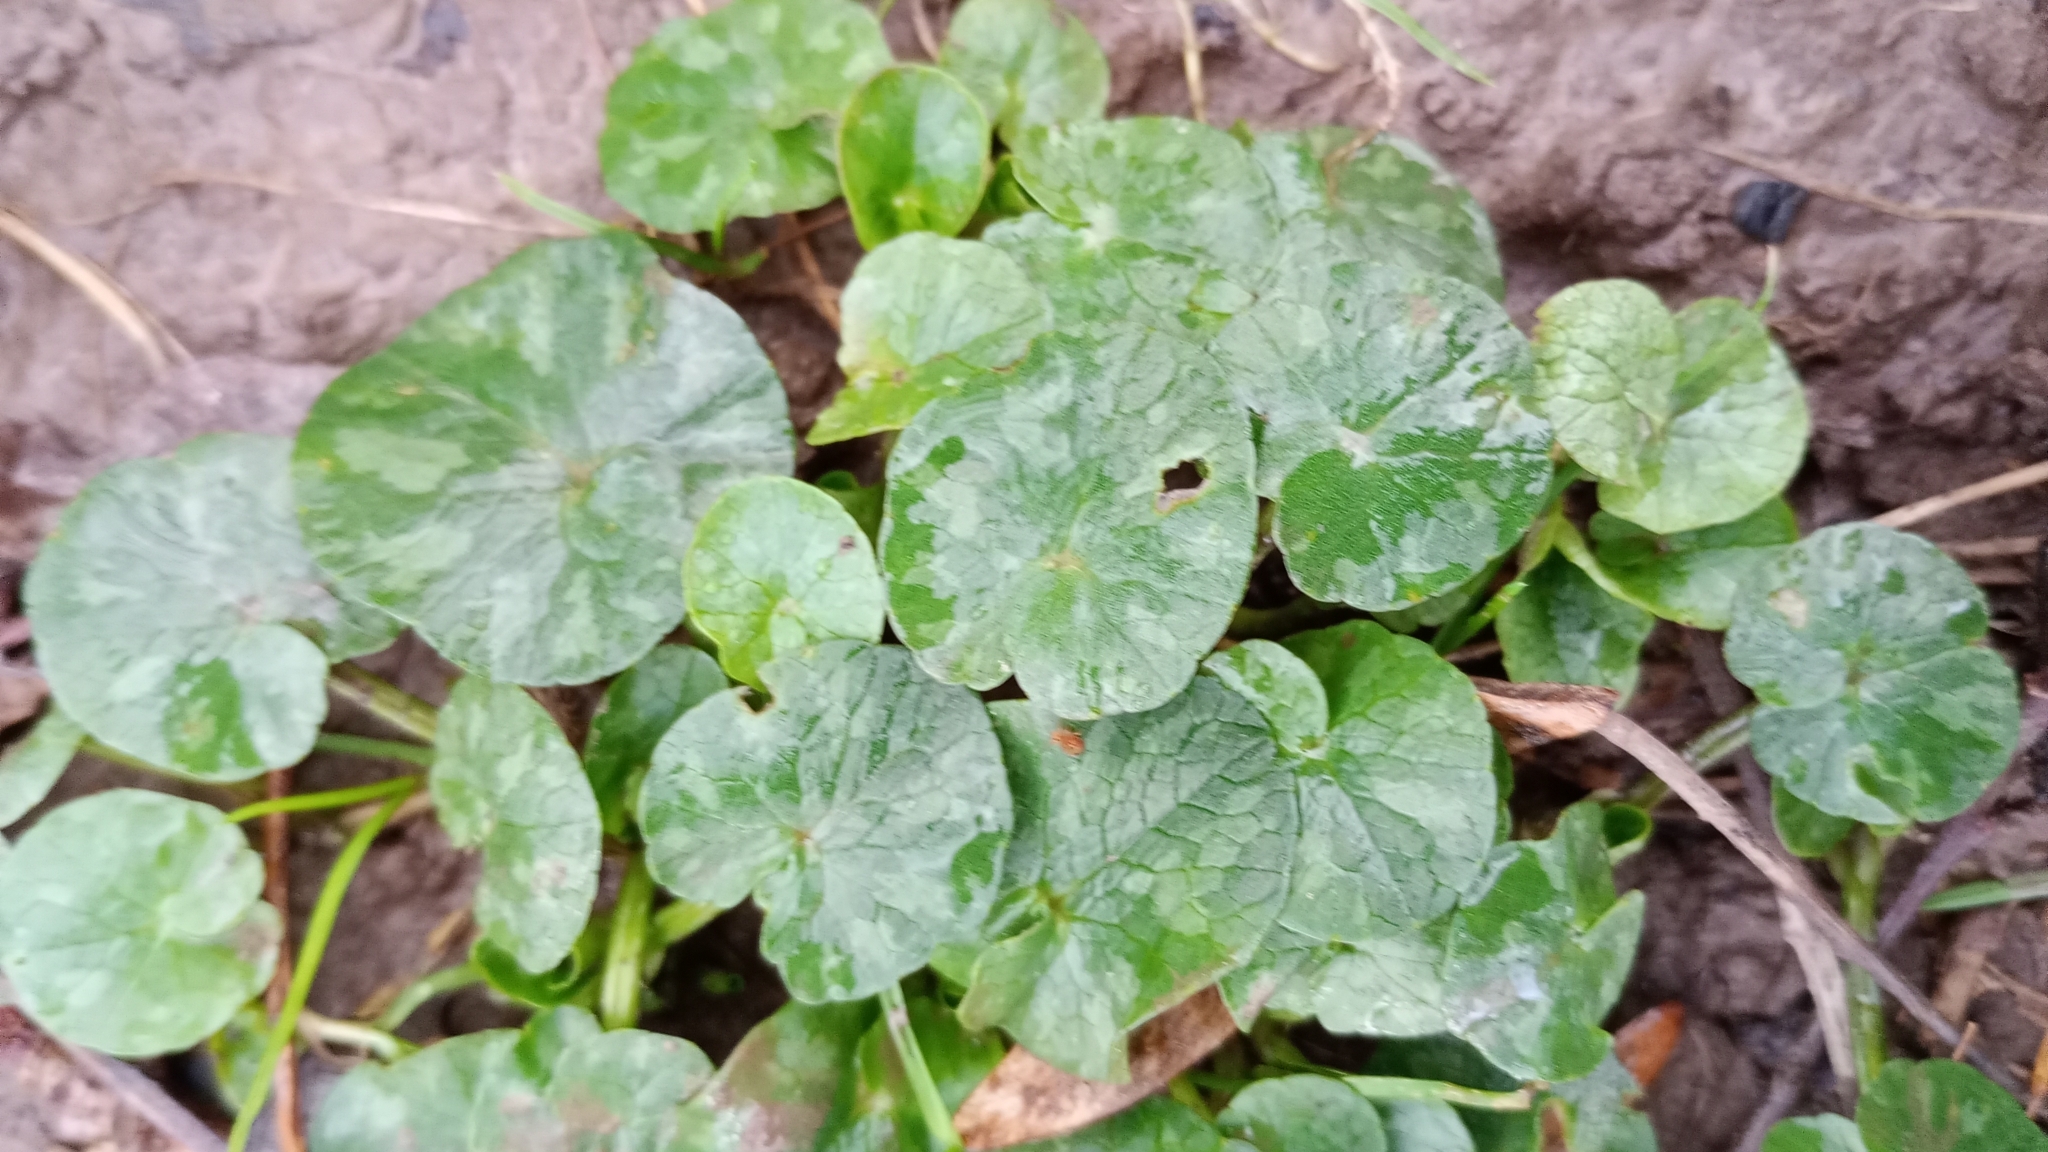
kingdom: Plantae
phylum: Tracheophyta
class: Magnoliopsida
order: Ranunculales
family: Ranunculaceae
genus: Ficaria
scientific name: Ficaria verna
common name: Lesser celandine
